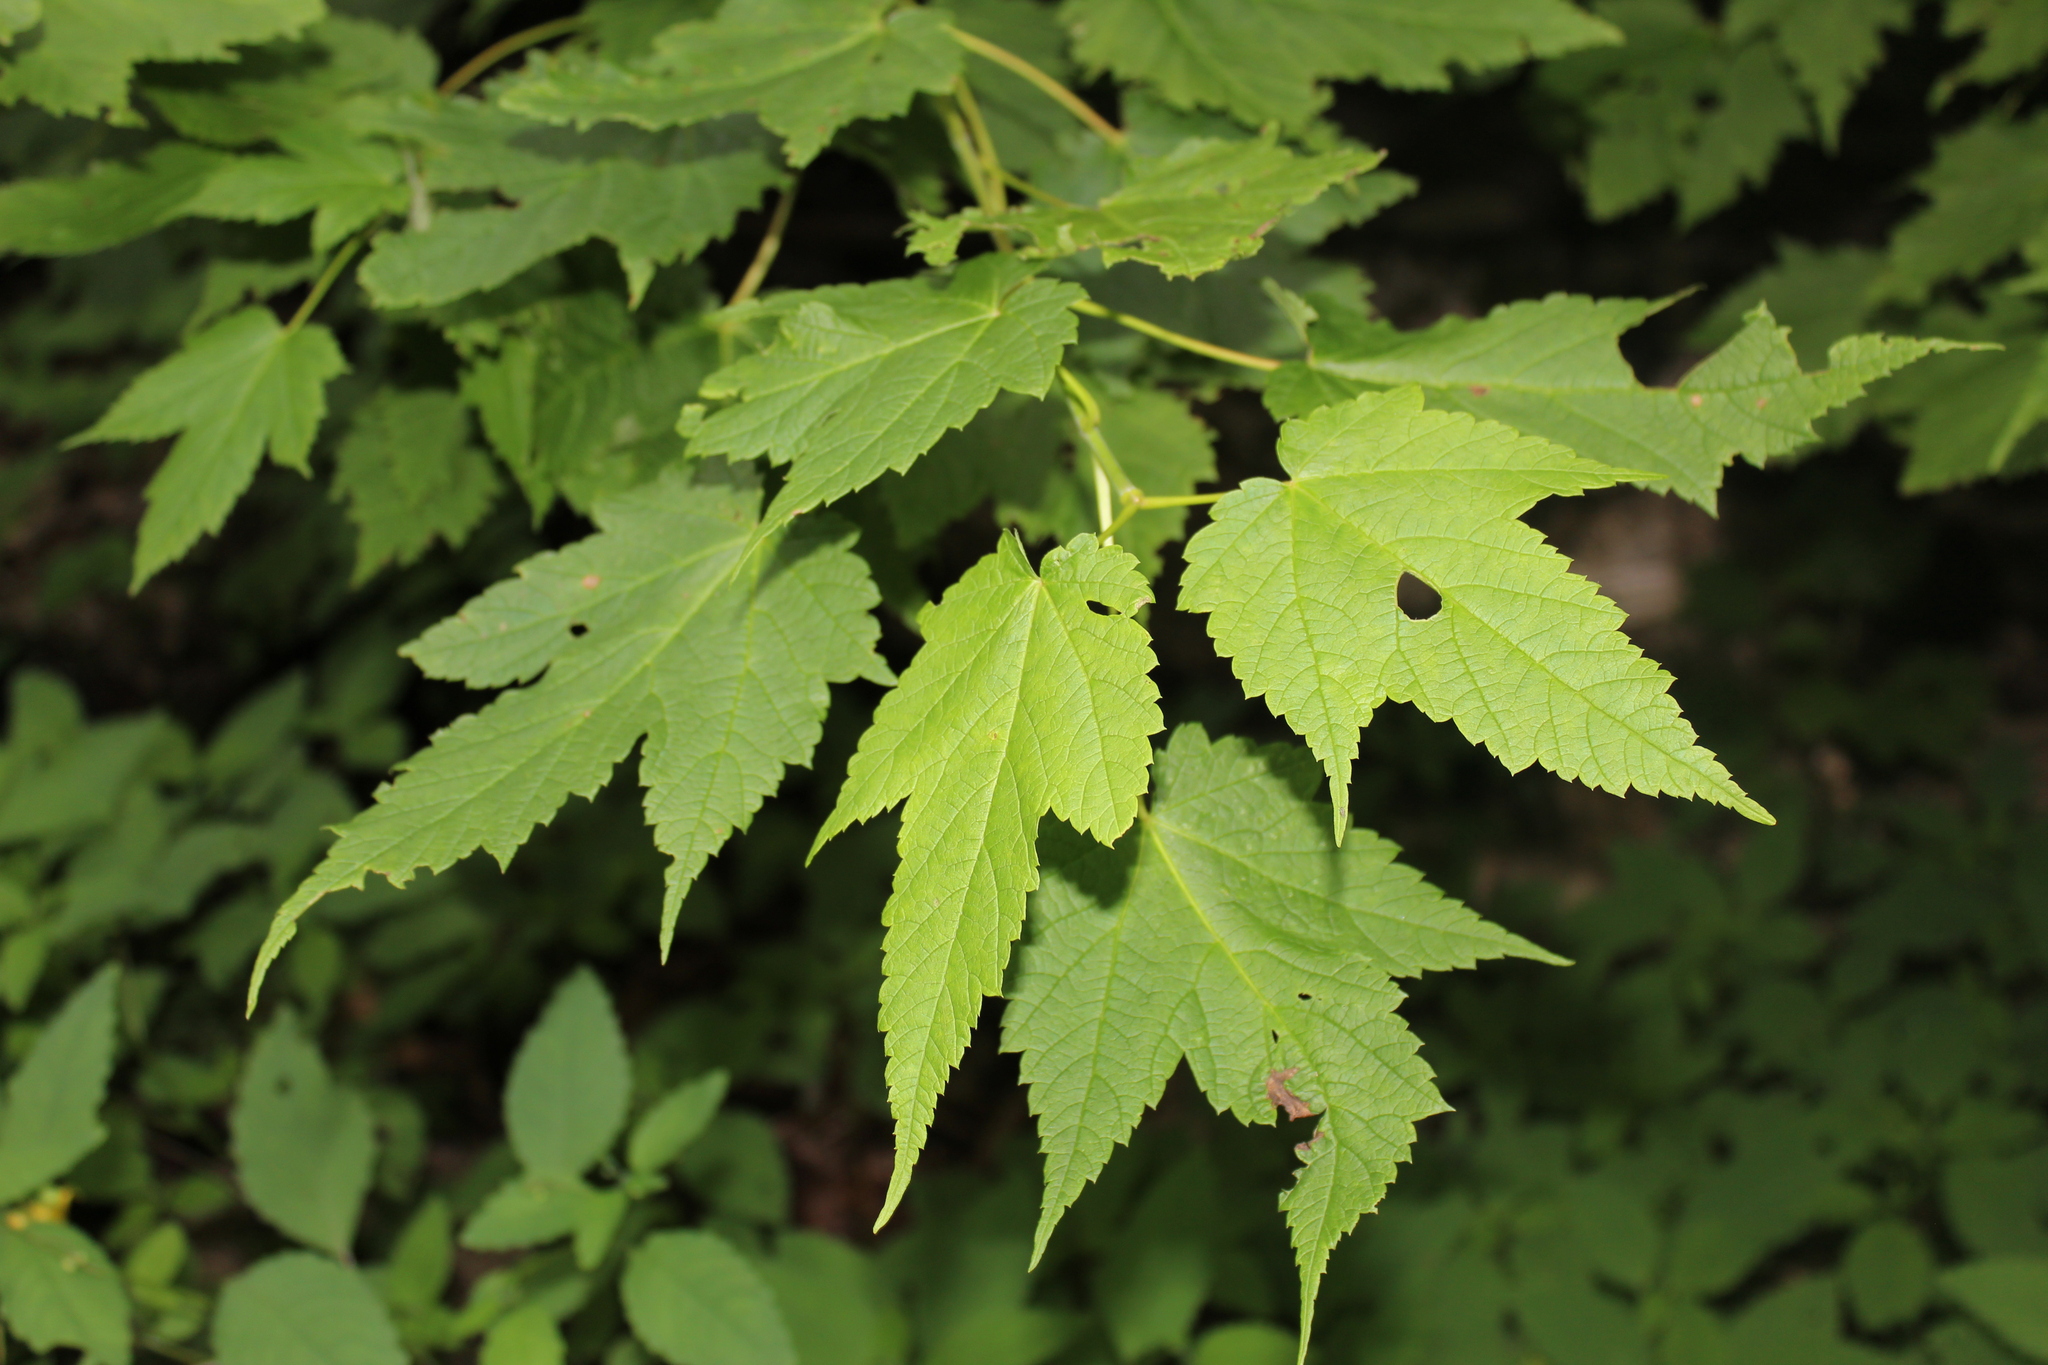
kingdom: Plantae
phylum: Tracheophyta
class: Magnoliopsida
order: Sapindales
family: Sapindaceae
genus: Acer
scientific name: Acer spicatum
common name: Mountain maple
